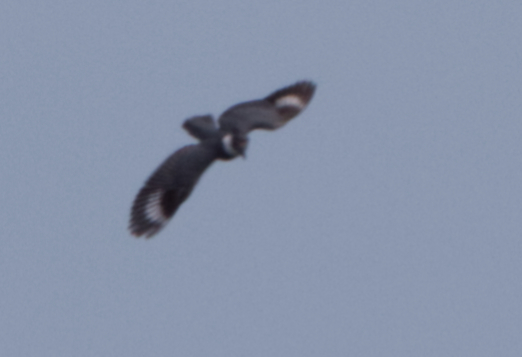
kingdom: Animalia
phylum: Chordata
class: Aves
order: Coraciiformes
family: Alcedinidae
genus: Megaceryle
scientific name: Megaceryle alcyon
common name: Belted kingfisher
